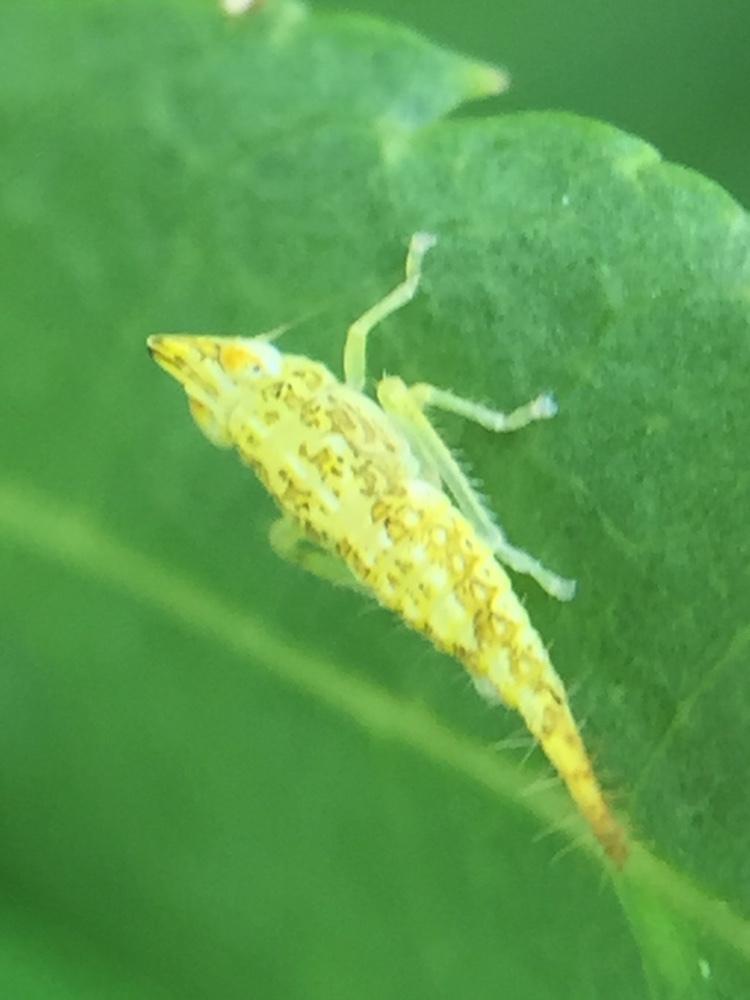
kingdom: Animalia
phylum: Arthropoda
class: Insecta
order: Hemiptera
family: Cicadellidae
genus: Japananus
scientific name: Japananus hyalinus
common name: The japanese maple leafhopper
